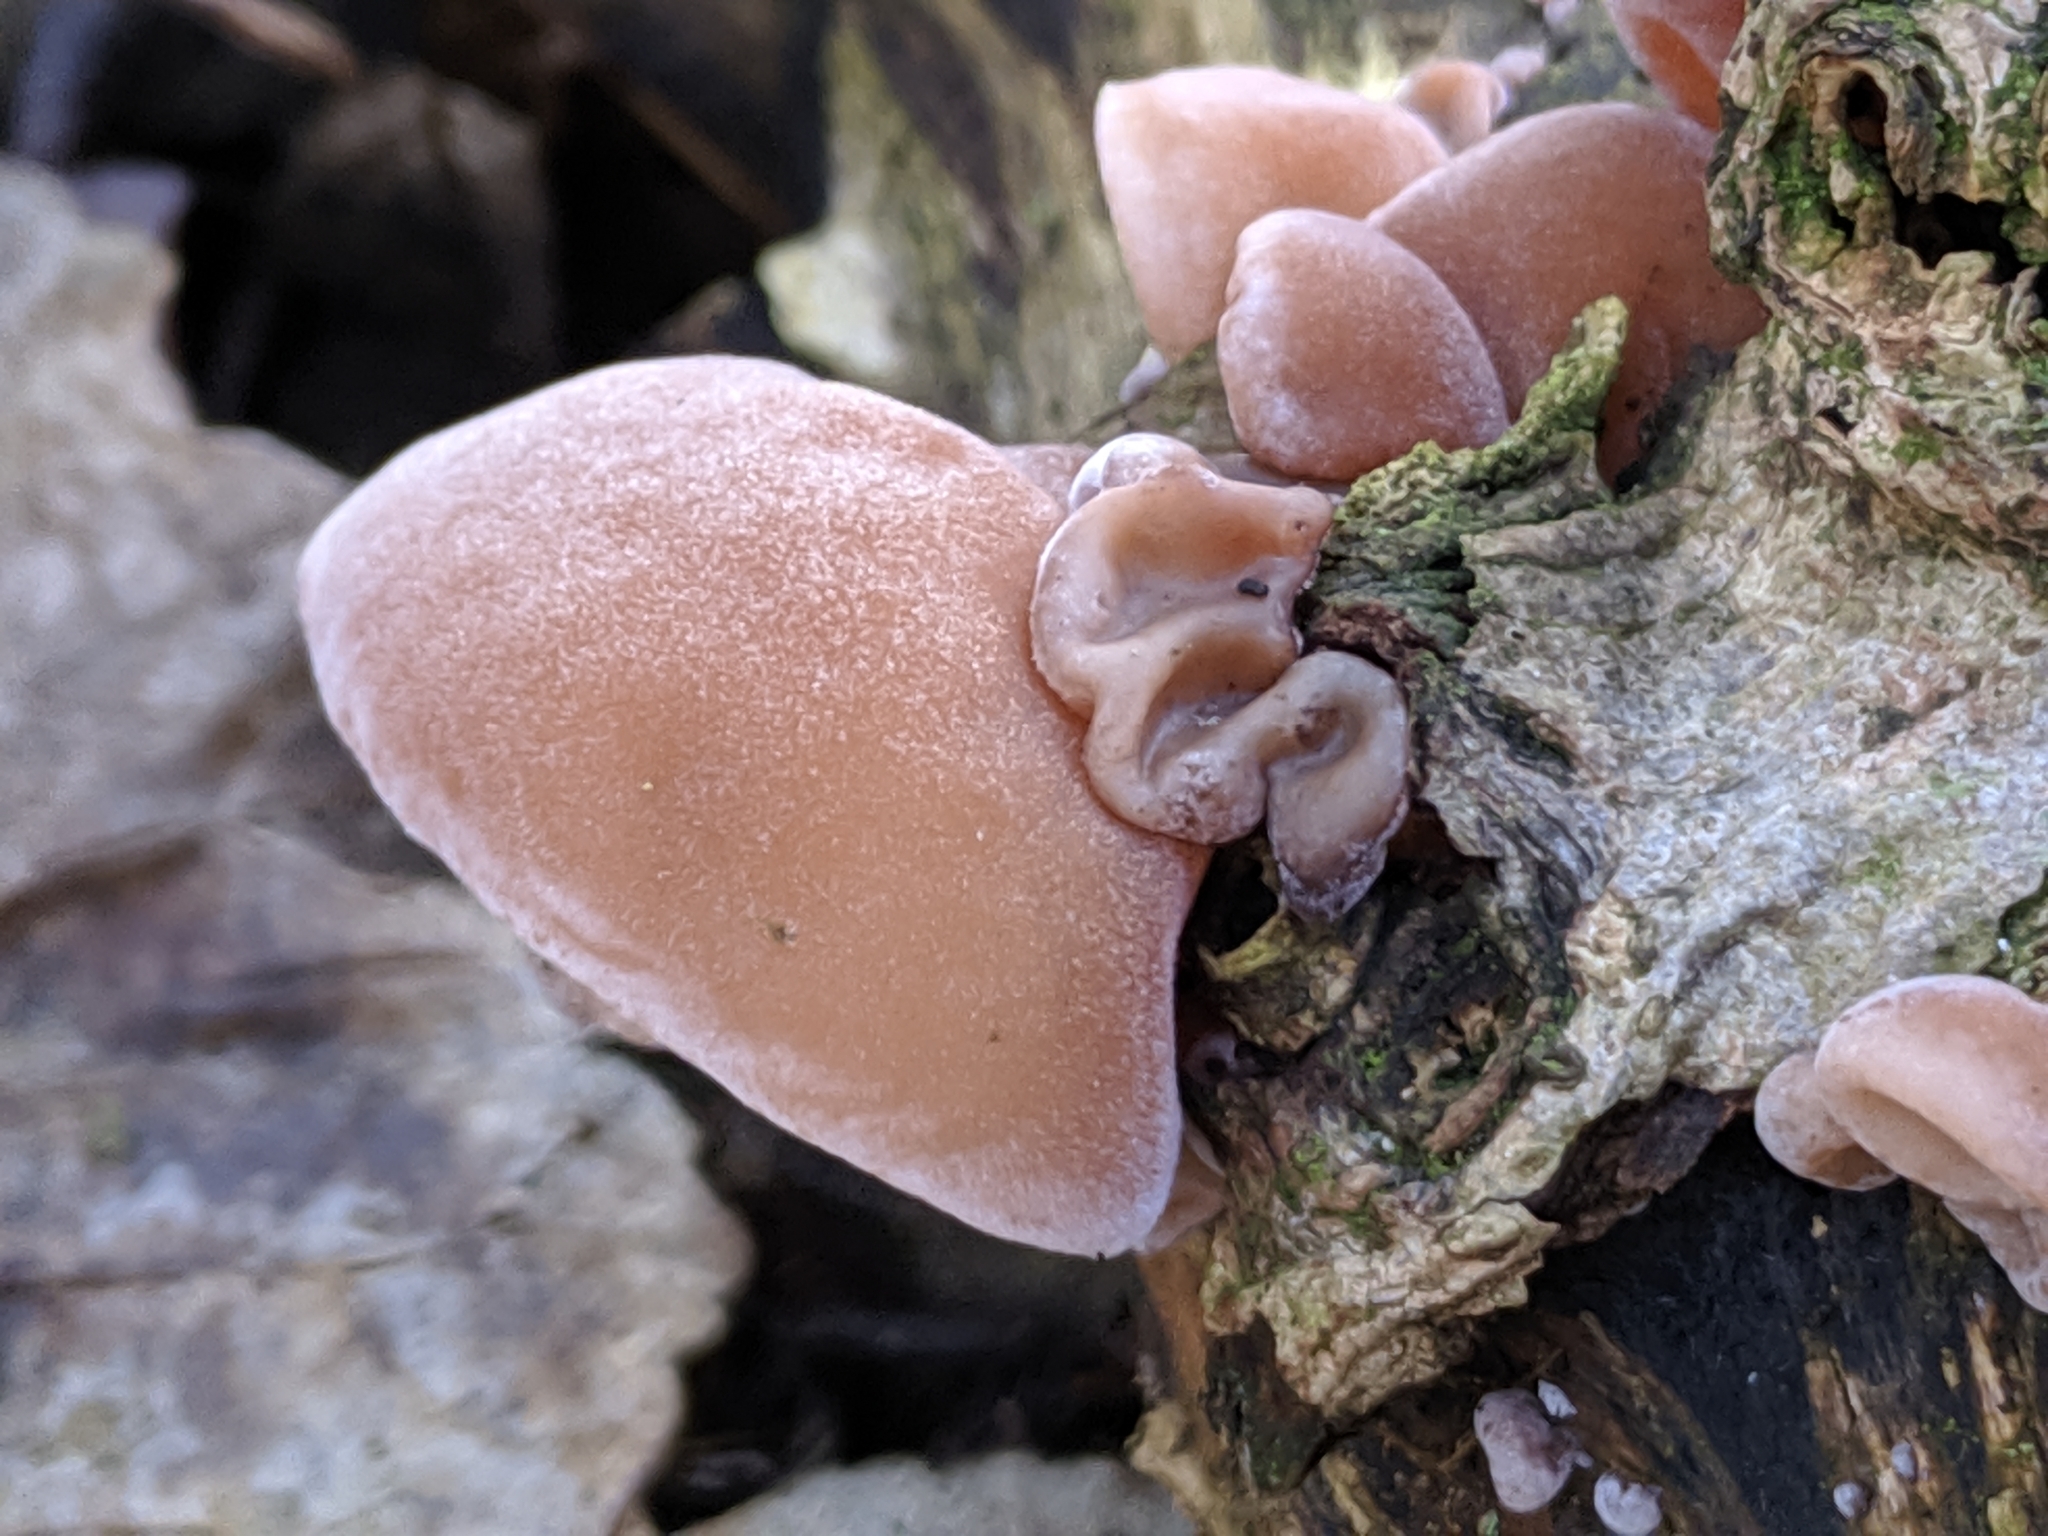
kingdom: Fungi
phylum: Basidiomycota
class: Agaricomycetes
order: Auriculariales
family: Auriculariaceae
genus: Auricularia
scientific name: Auricularia auricula-judae
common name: Jelly ear
